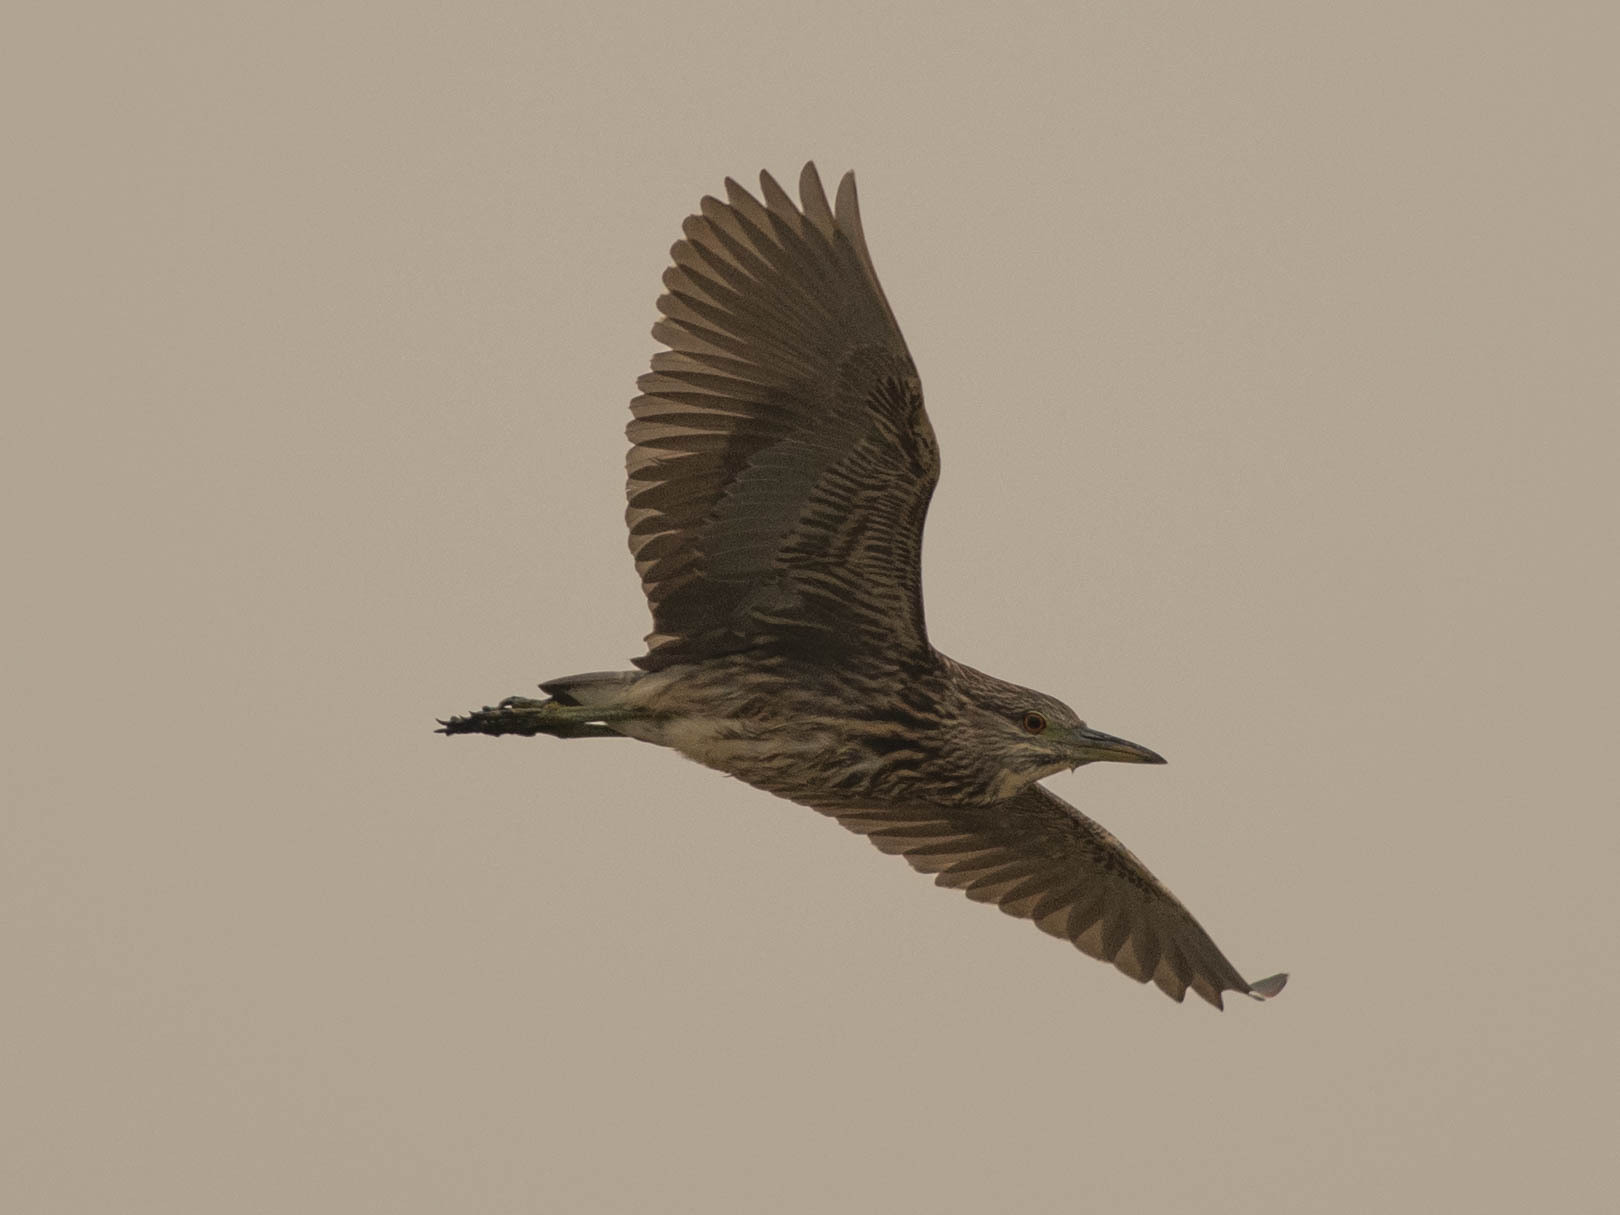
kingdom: Animalia
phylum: Chordata
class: Aves
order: Pelecaniformes
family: Ardeidae
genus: Nycticorax
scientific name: Nycticorax nycticorax
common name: Black-crowned night heron
